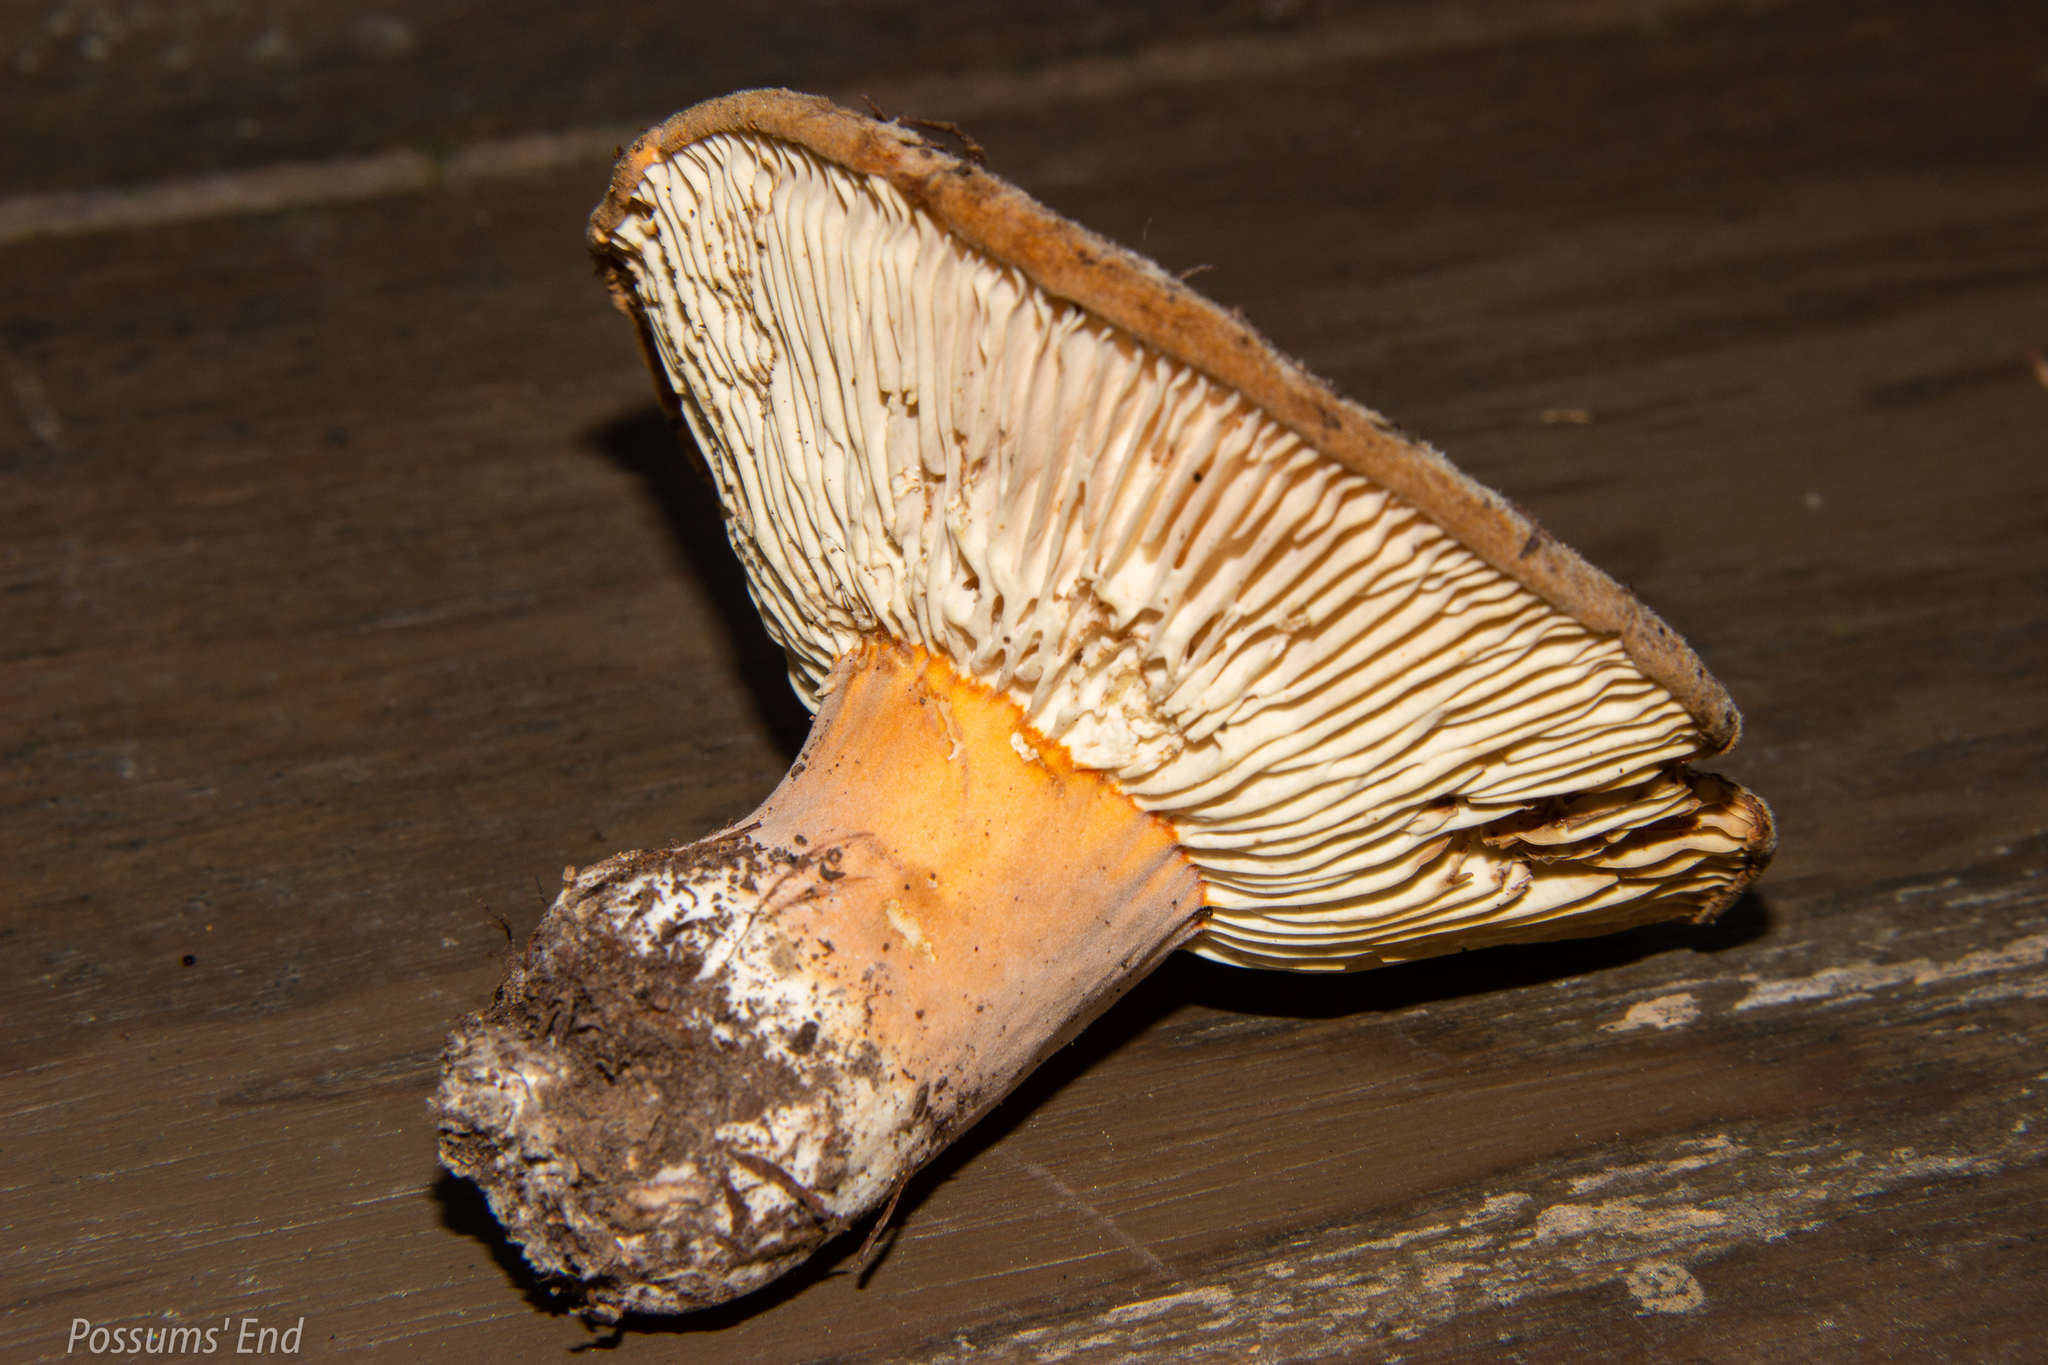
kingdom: Fungi
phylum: Basidiomycota
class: Agaricomycetes
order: Russulales
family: Russulaceae
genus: Lactifluus
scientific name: Lactifluus clarkeae
